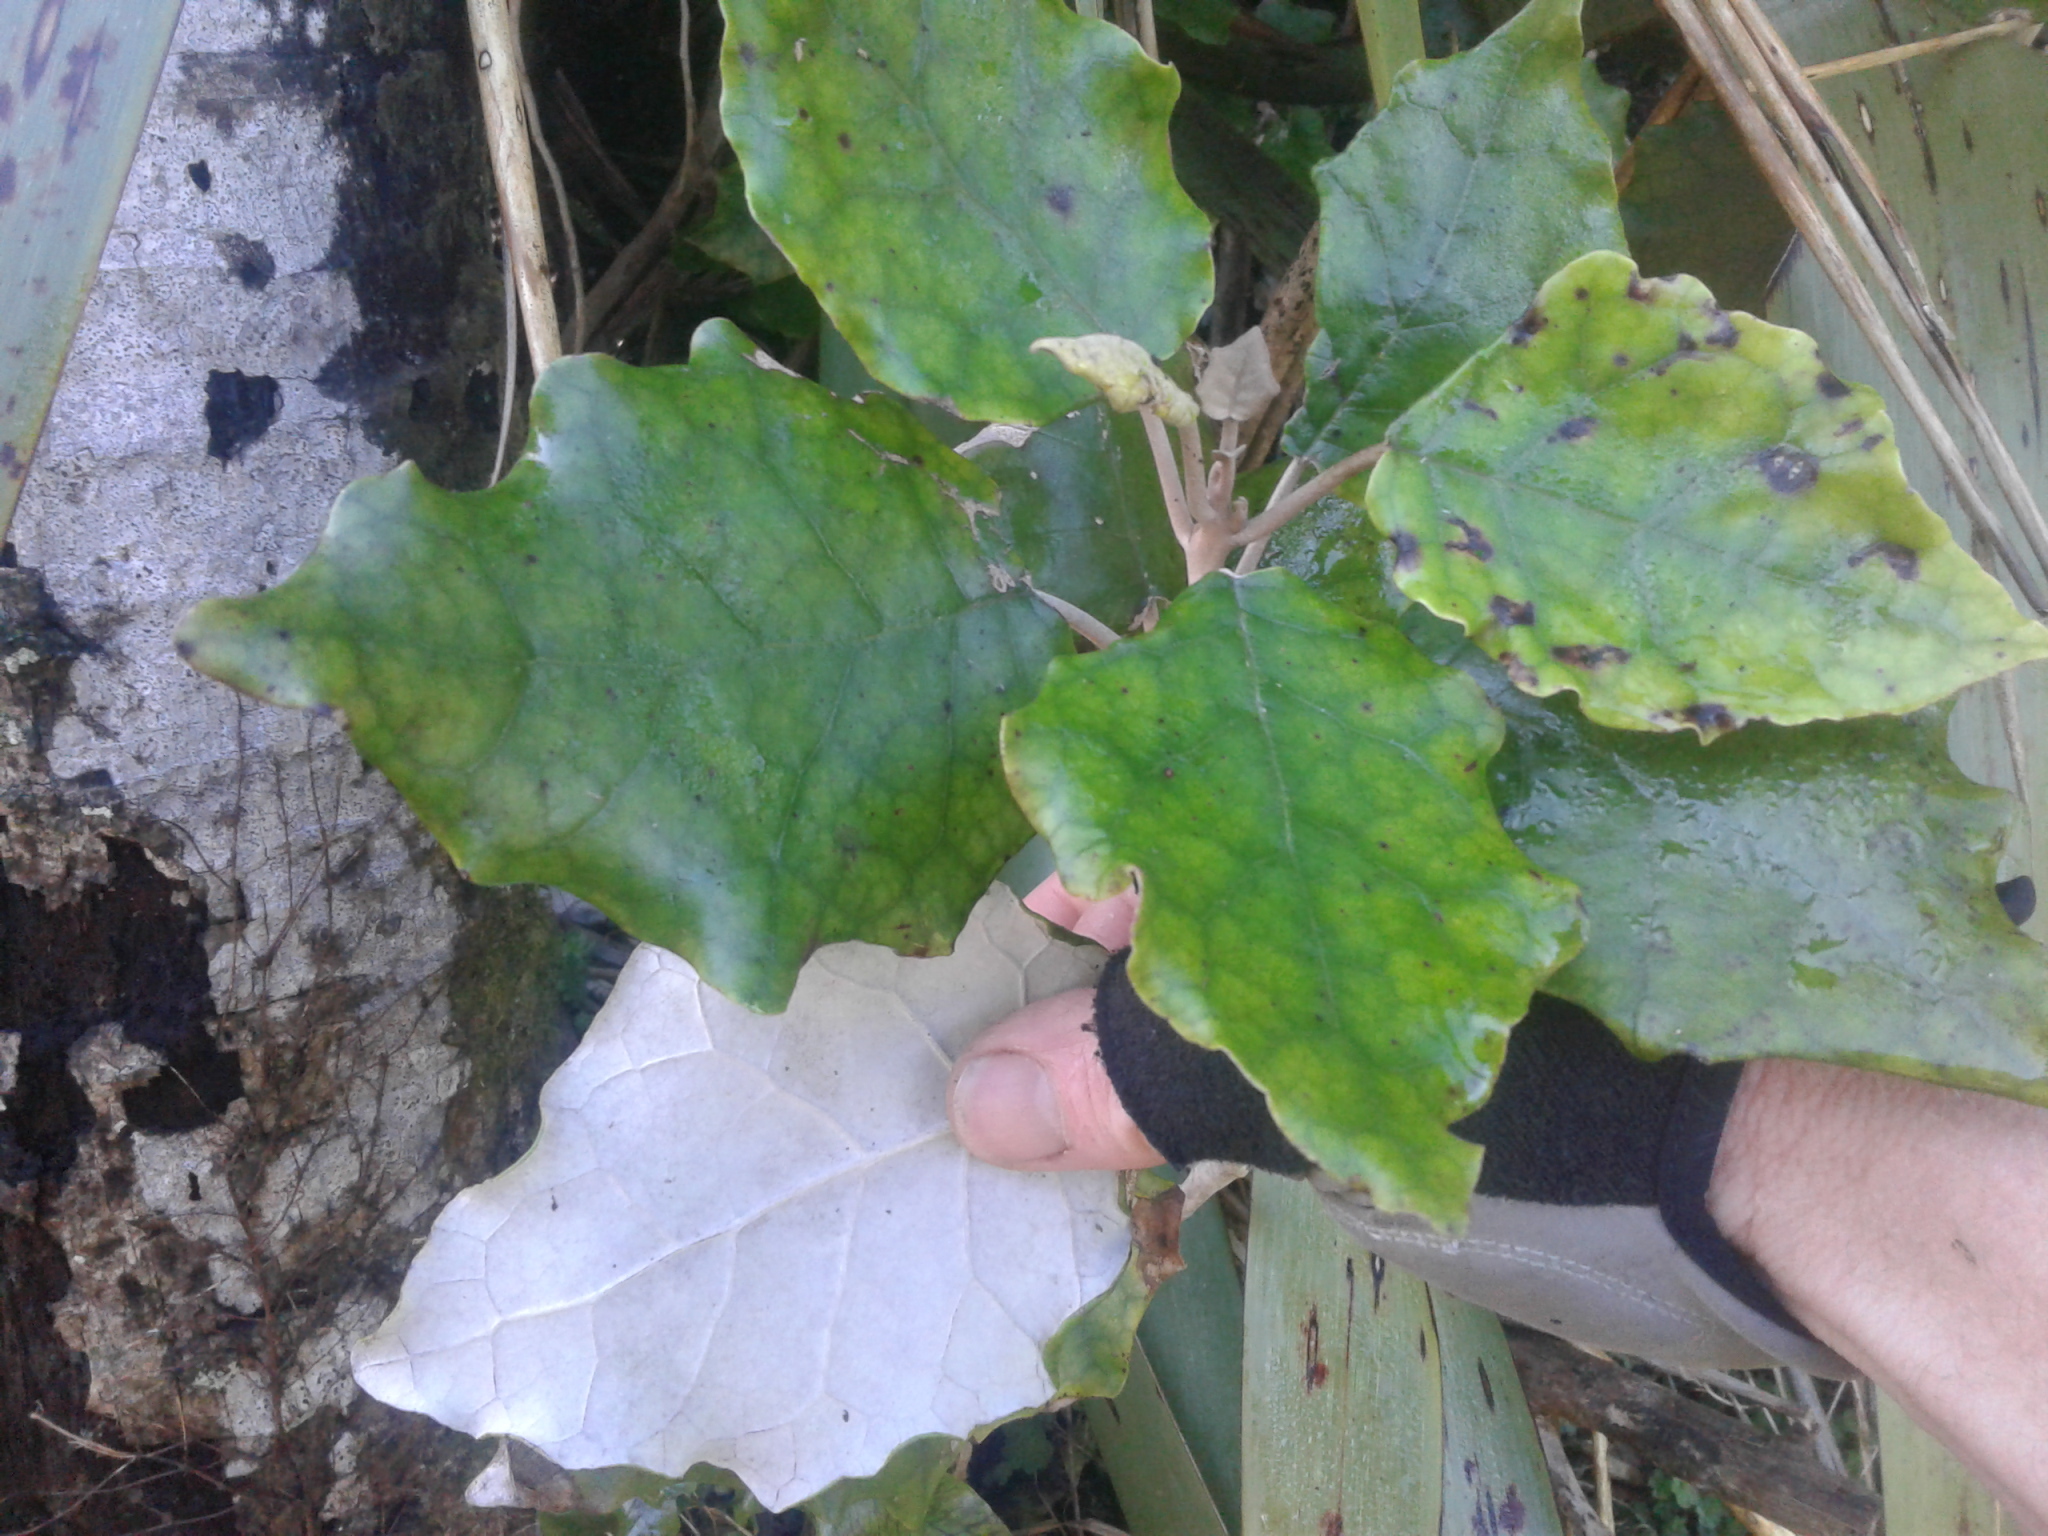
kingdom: Plantae
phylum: Tracheophyta
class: Magnoliopsida
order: Asterales
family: Asteraceae
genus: Brachyglottis
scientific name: Brachyglottis repanda
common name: Hedge ragwort
